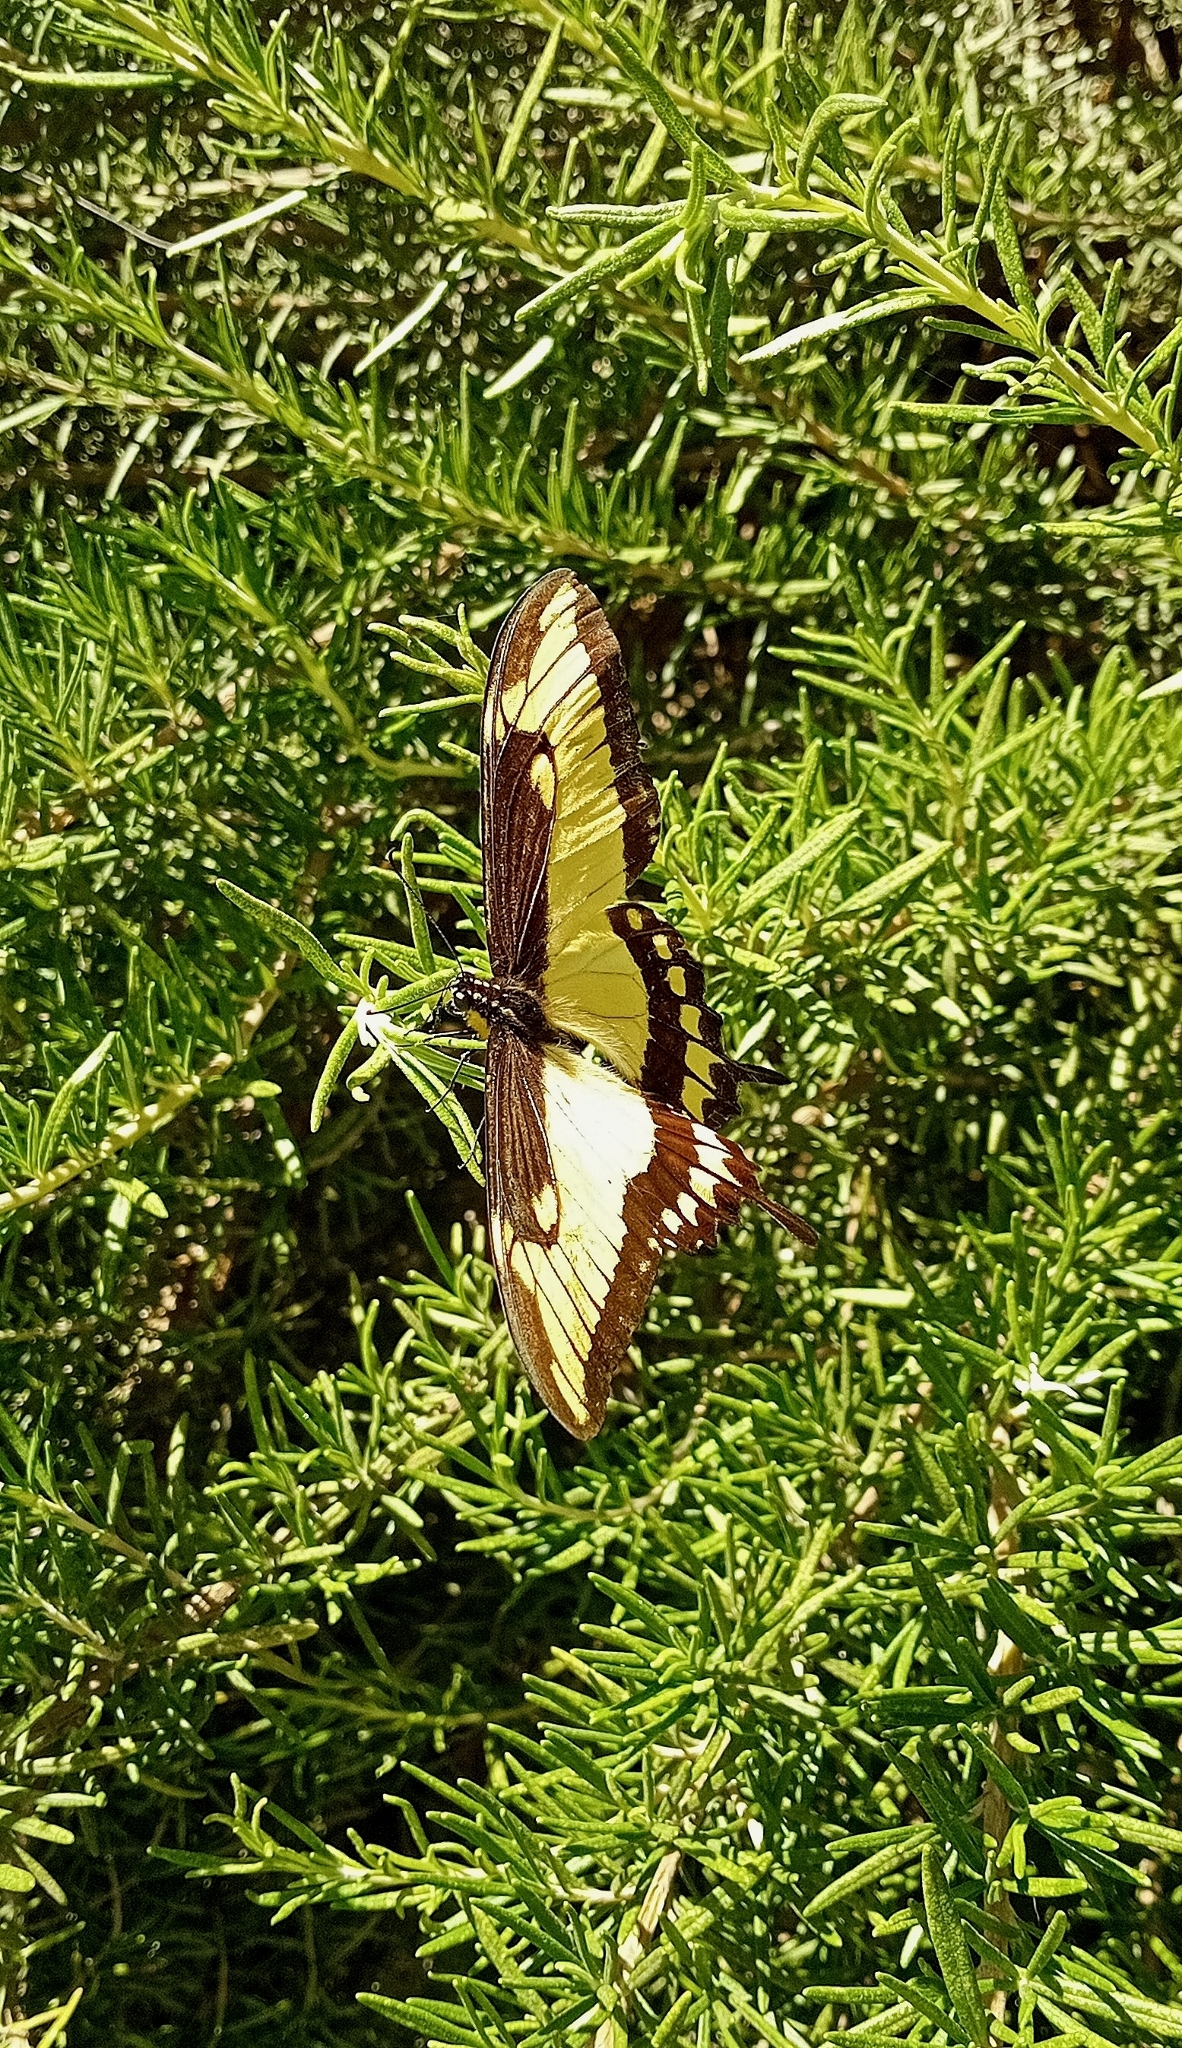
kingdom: Animalia
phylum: Arthropoda
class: Insecta
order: Lepidoptera
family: Papilionidae
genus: Papilio
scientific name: Papilio astyalus
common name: Astyalus swallowtail
